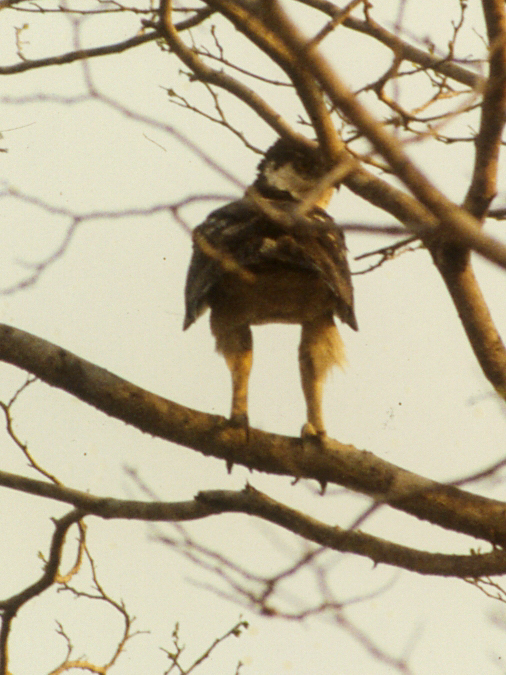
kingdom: Animalia
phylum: Chordata
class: Aves
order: Accipitriformes
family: Accipitridae
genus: Aquila
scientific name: Aquila spilogaster
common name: African hawk-eagle
